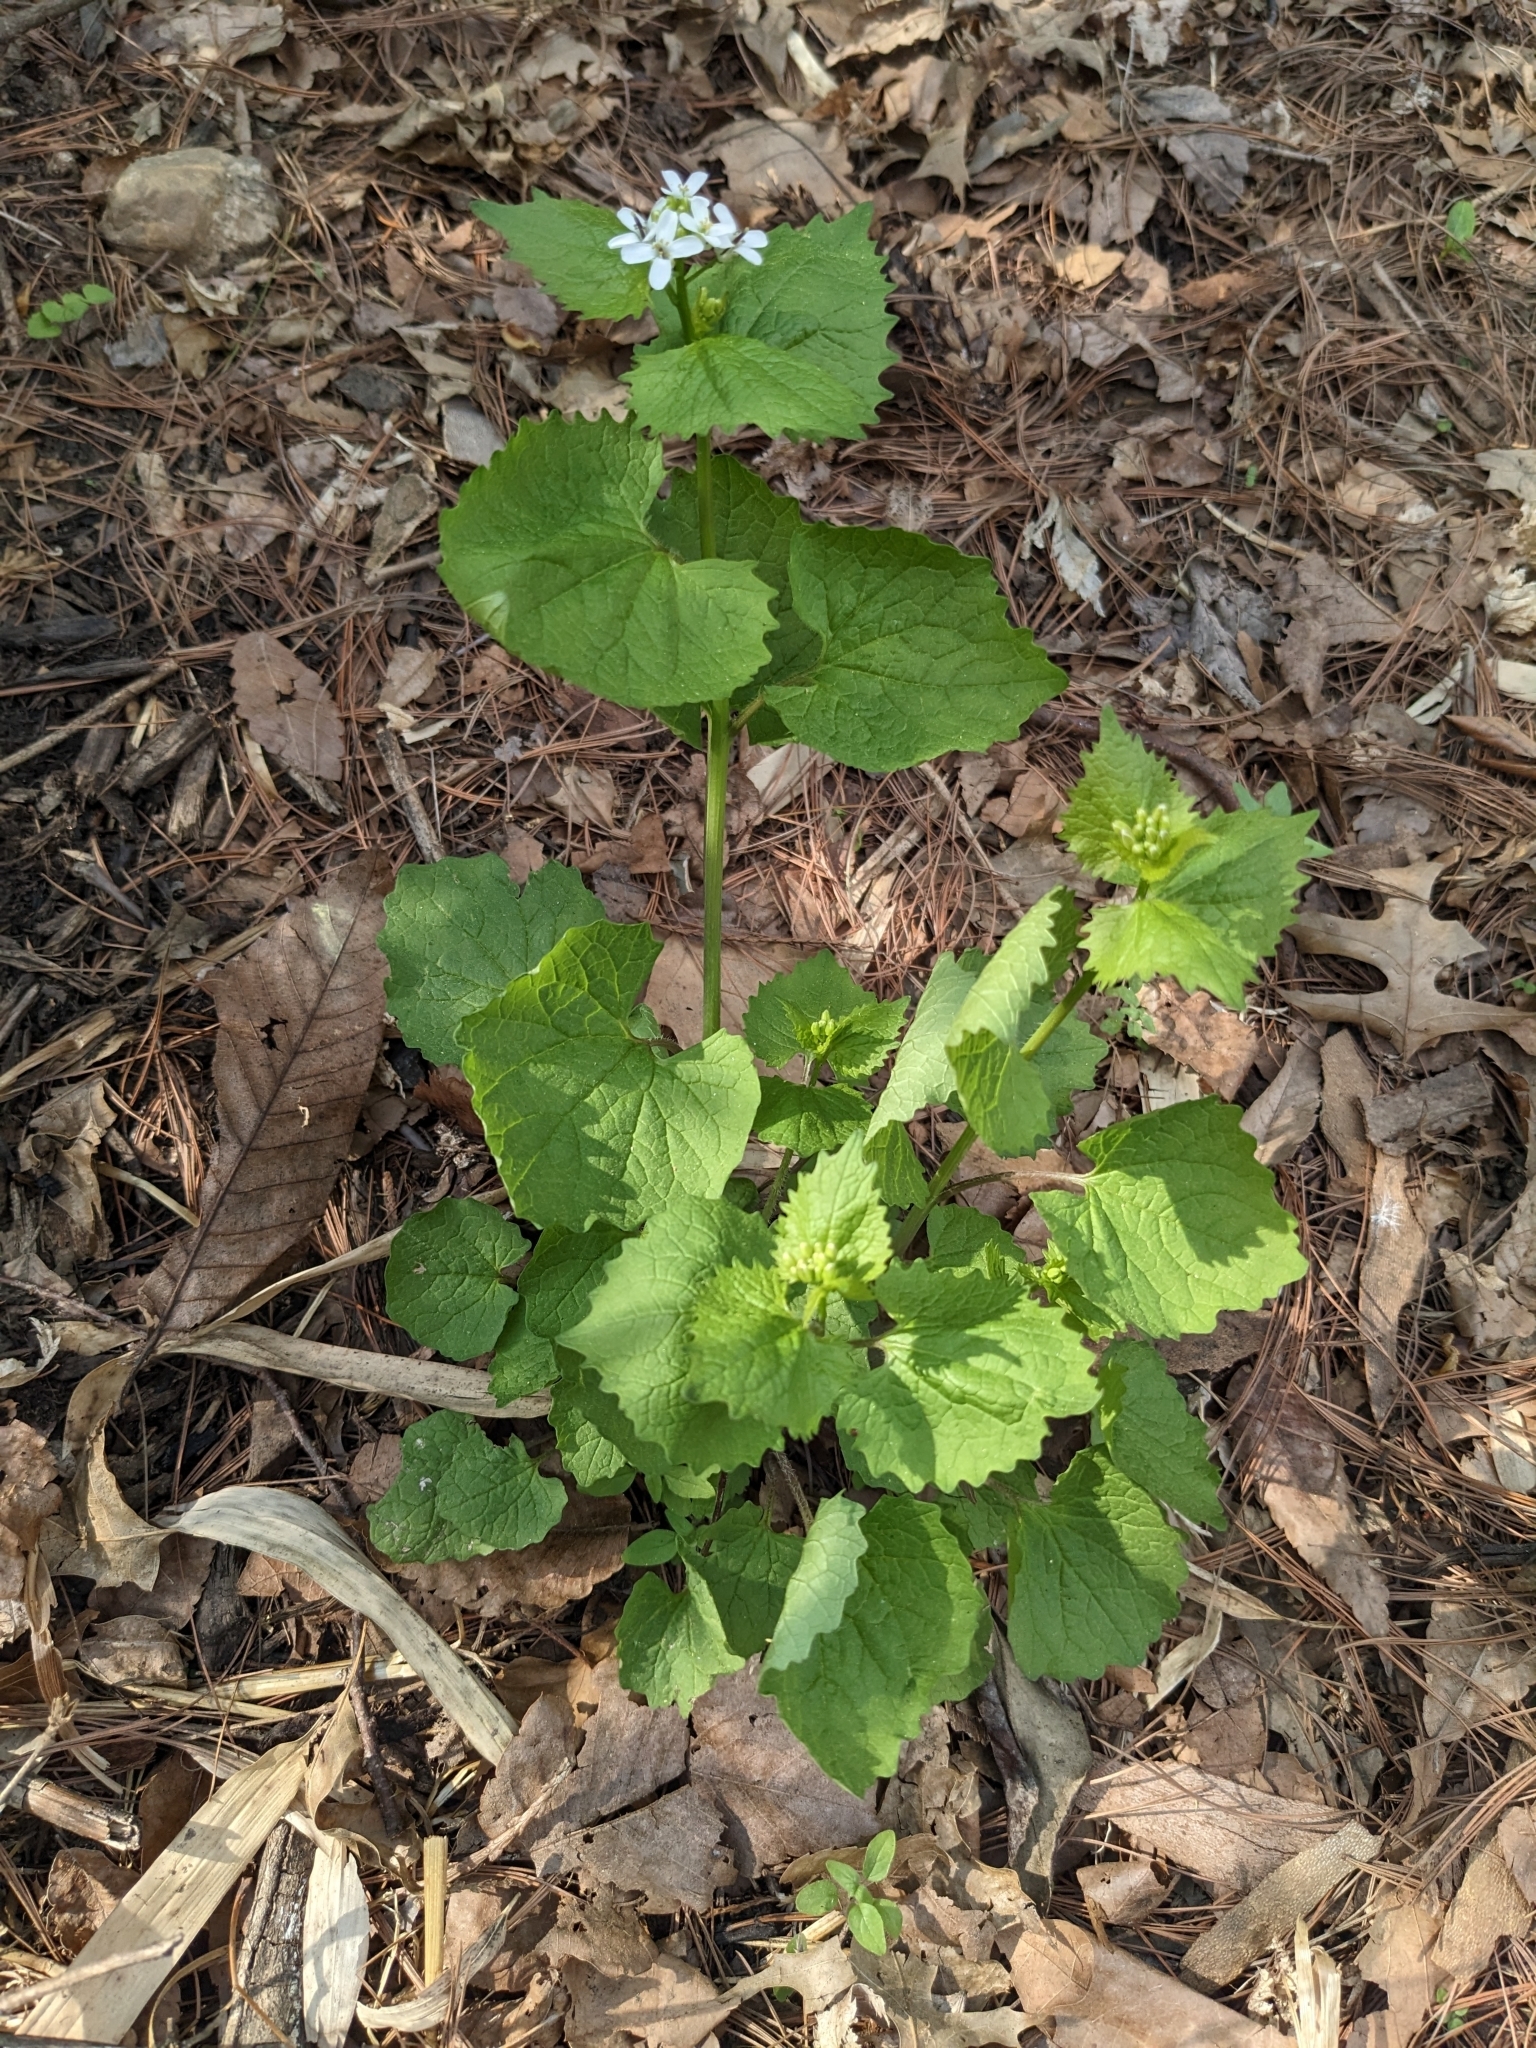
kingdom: Plantae
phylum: Tracheophyta
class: Magnoliopsida
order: Brassicales
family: Brassicaceae
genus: Alliaria
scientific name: Alliaria petiolata
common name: Garlic mustard
